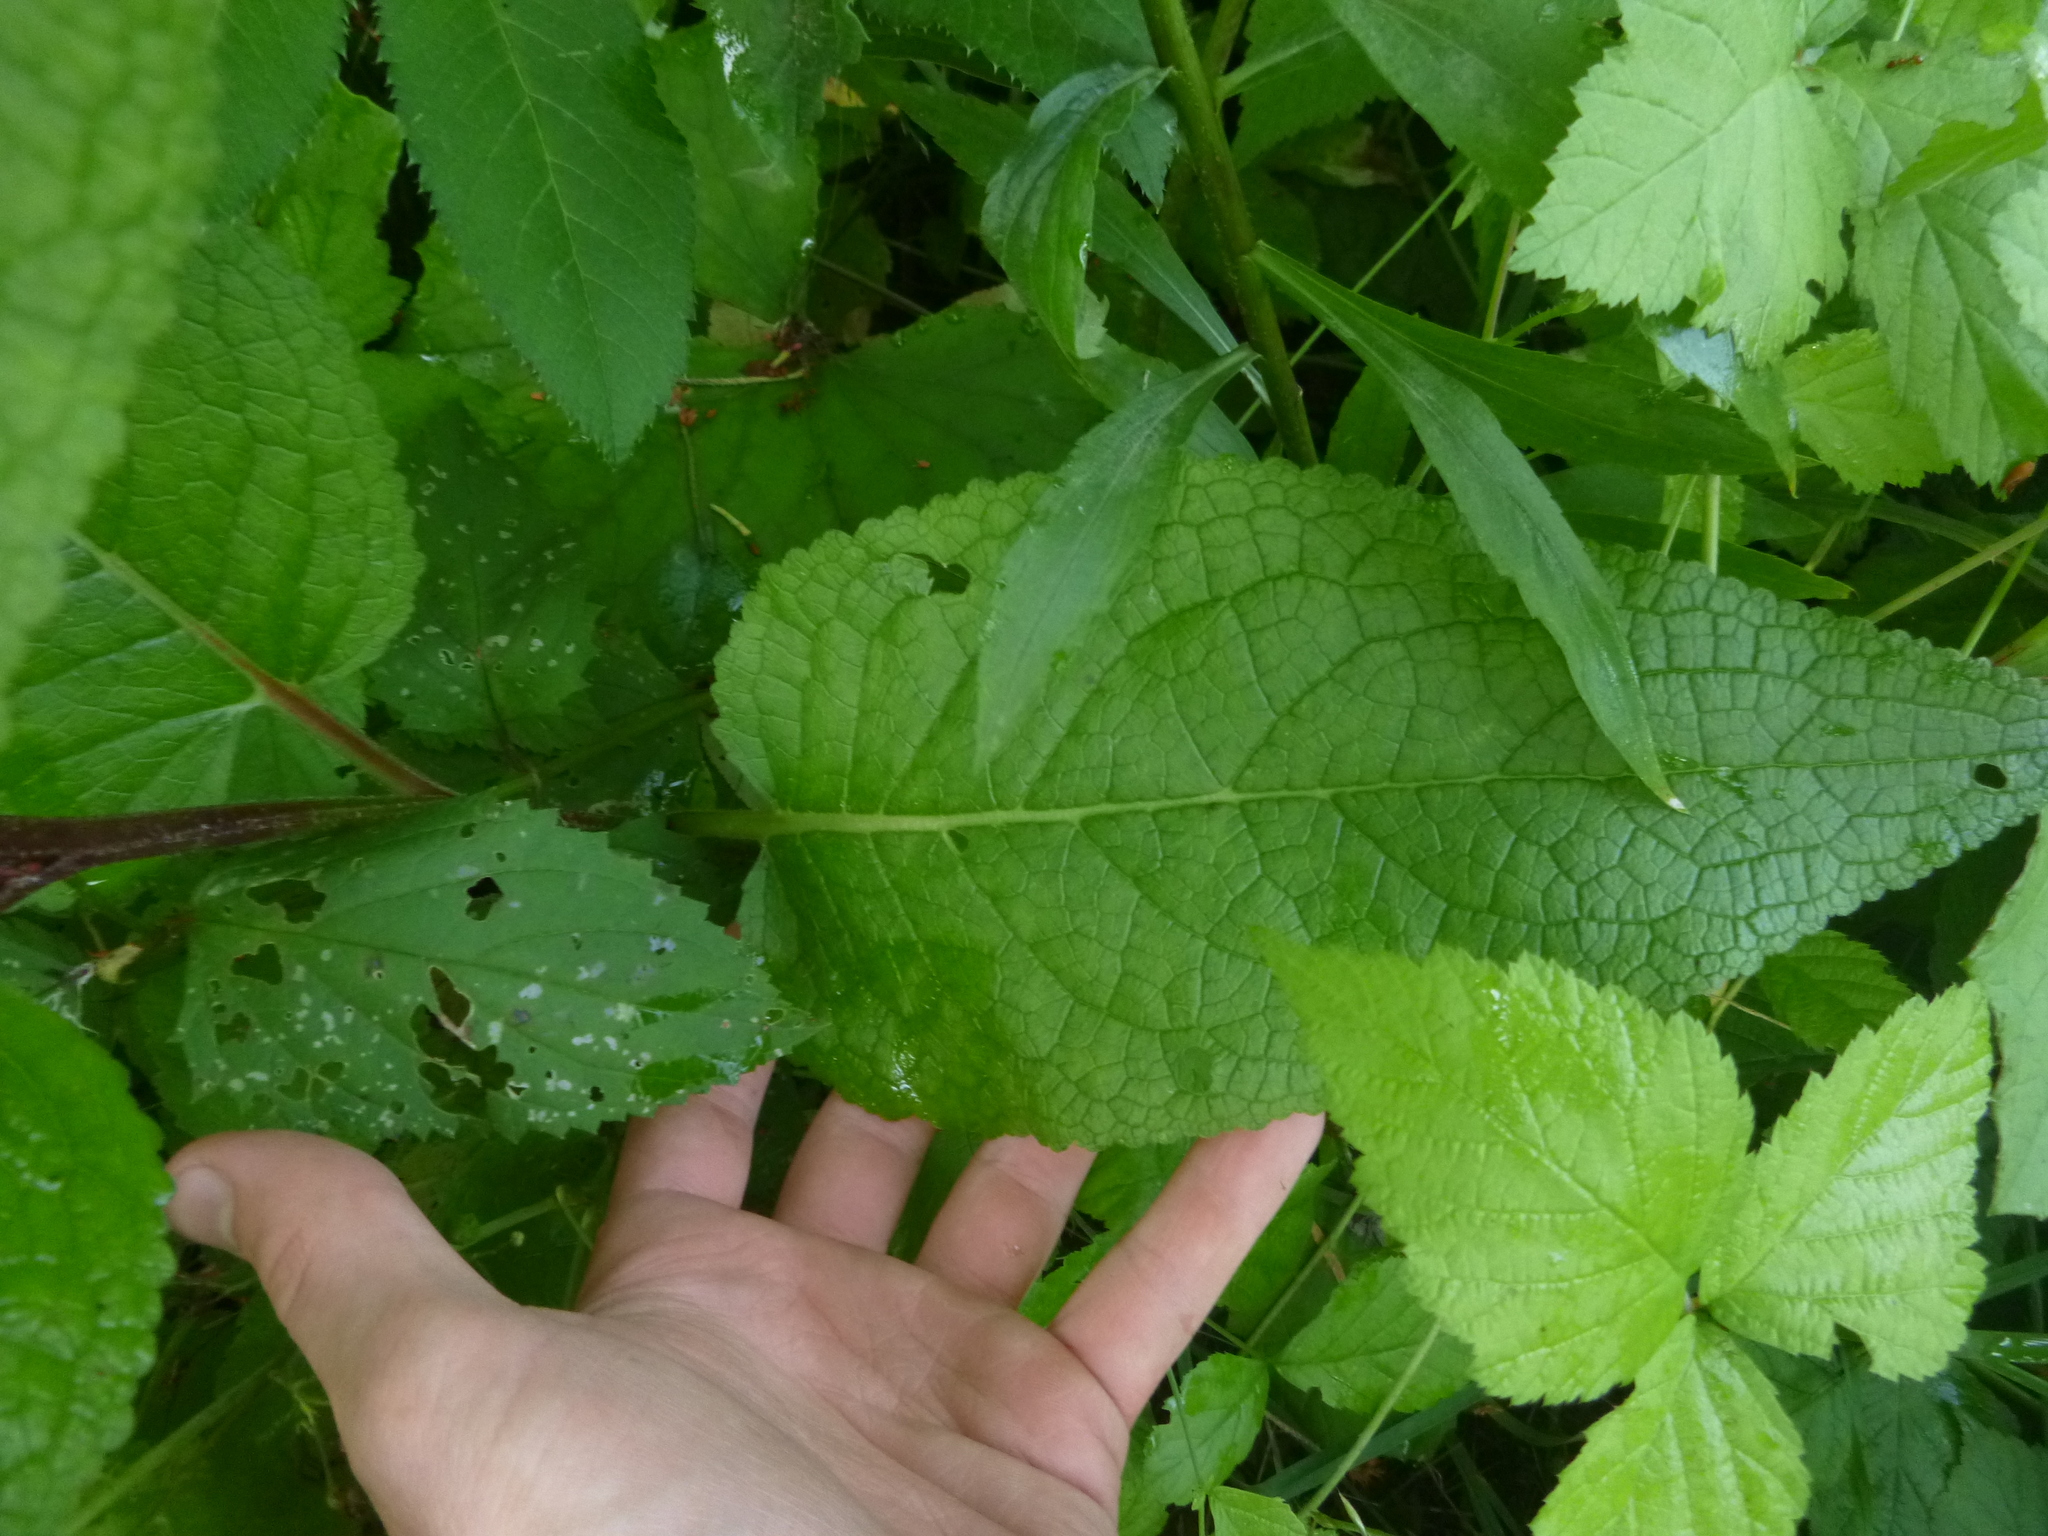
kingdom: Plantae
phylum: Tracheophyta
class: Magnoliopsida
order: Lamiales
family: Scrophulariaceae
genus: Verbascum
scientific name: Verbascum nigrum
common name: Dark mullein
